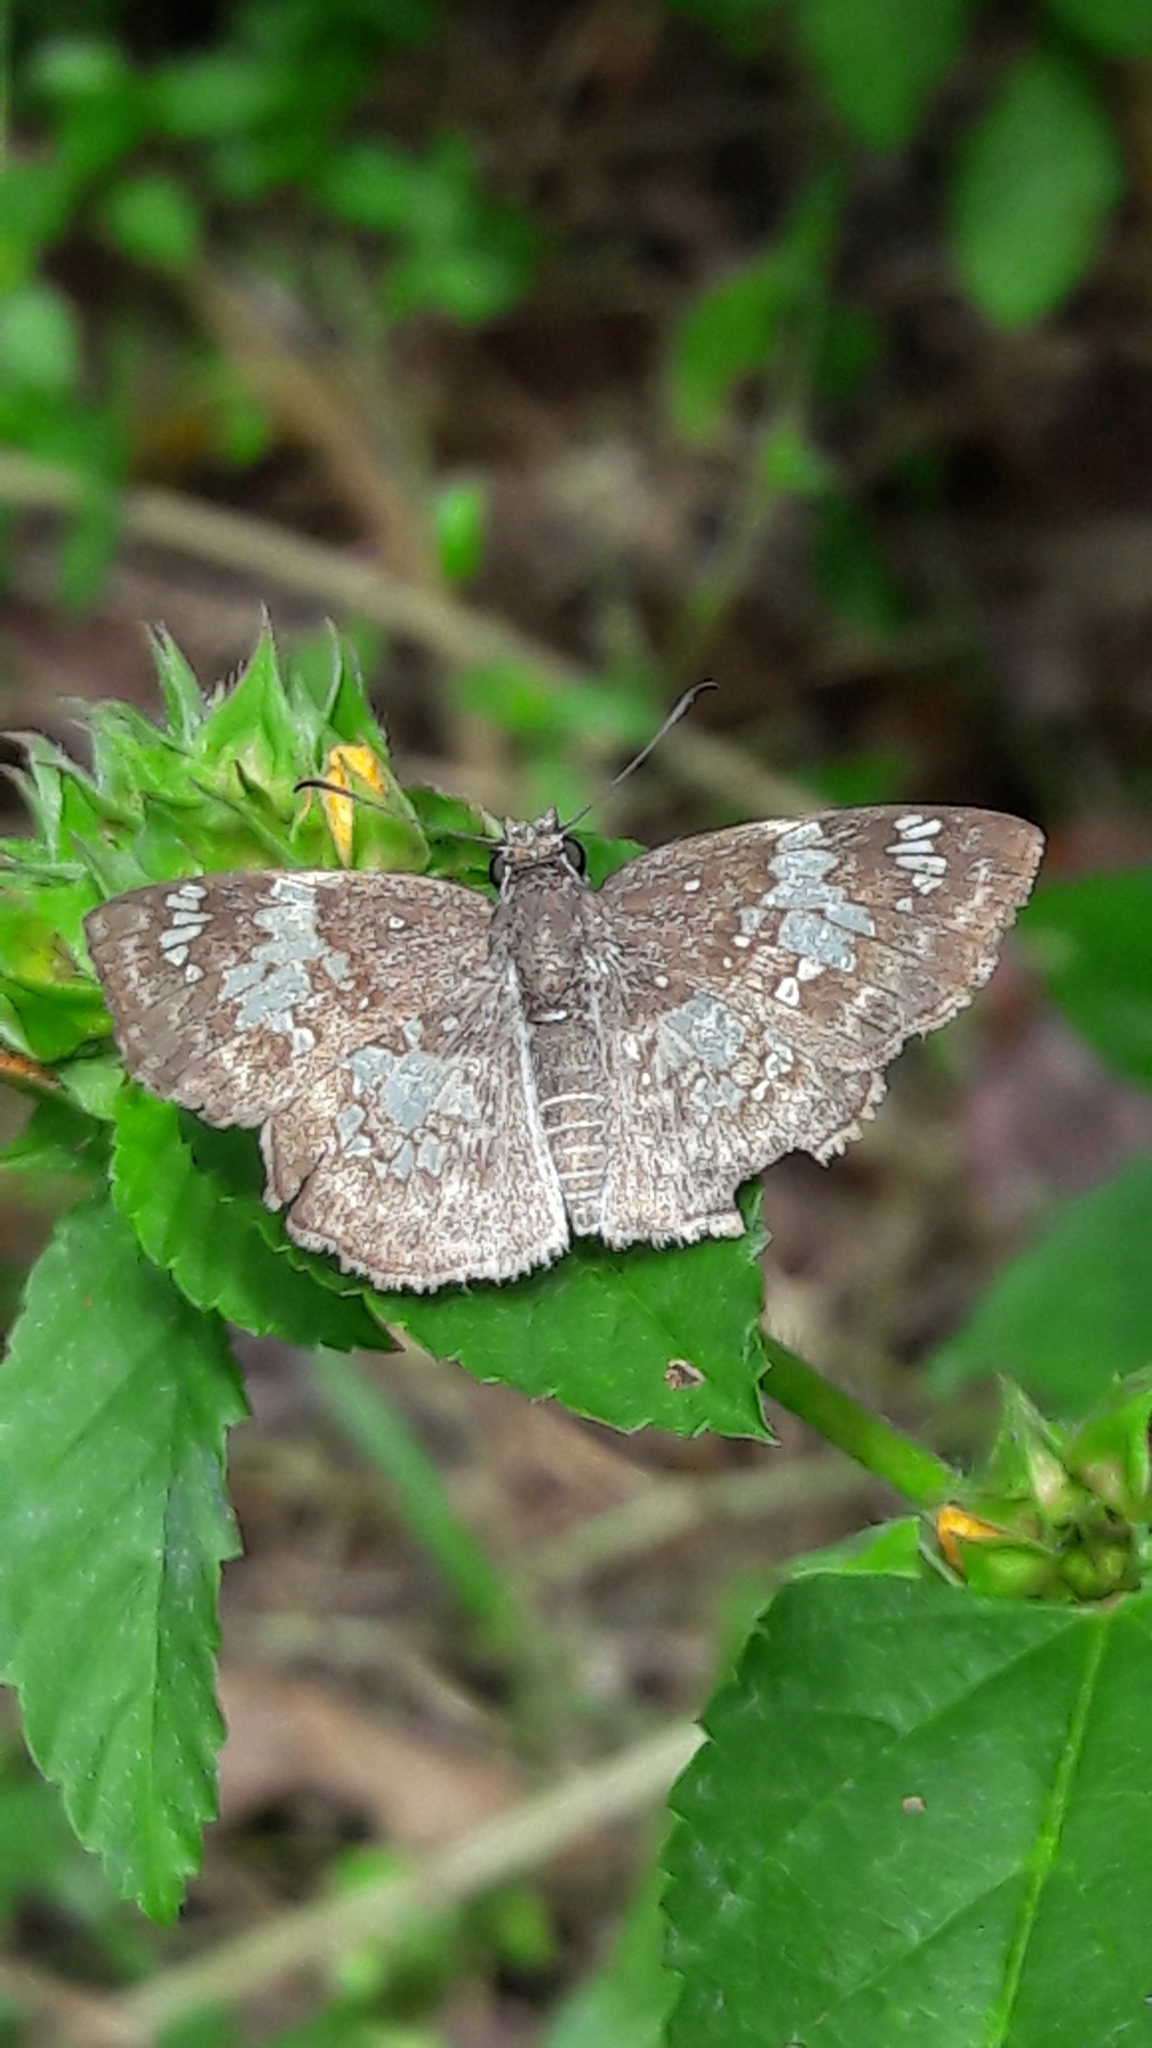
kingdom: Animalia
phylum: Arthropoda
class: Insecta
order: Lepidoptera
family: Hesperiidae
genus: Xenophanes
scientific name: Xenophanes tryxus
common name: Glassy-winged skipper
